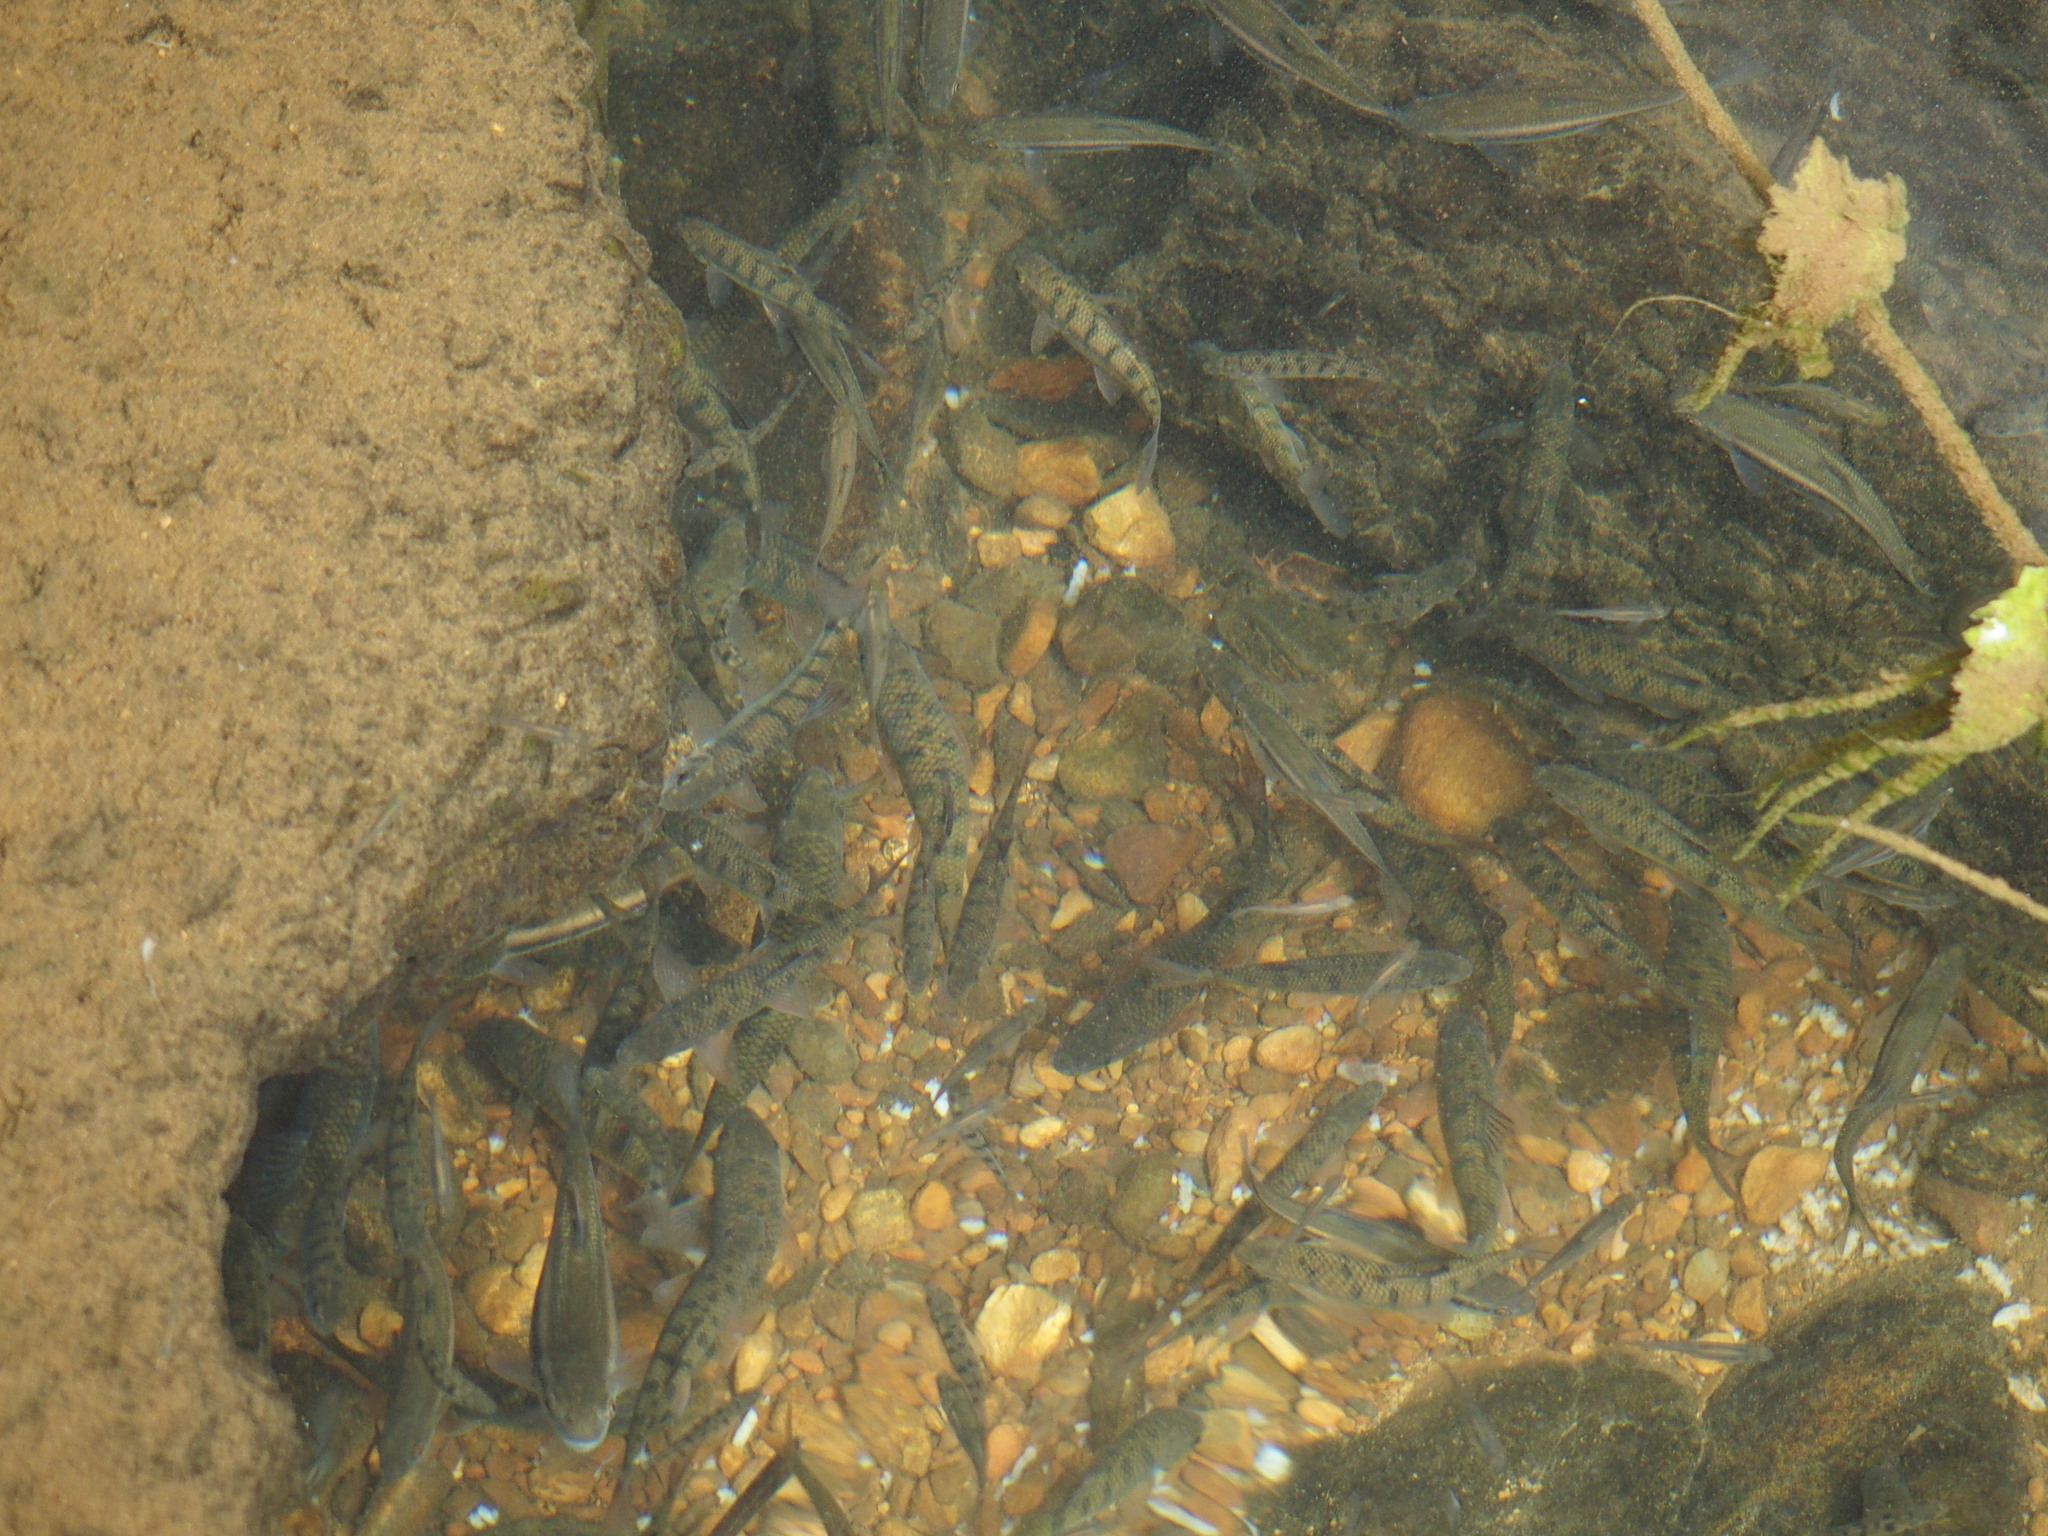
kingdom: Animalia
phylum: Chordata
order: Cypriniformes
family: Cyprinidae
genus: Acrossocheilus
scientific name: Acrossocheilus paradoxus
